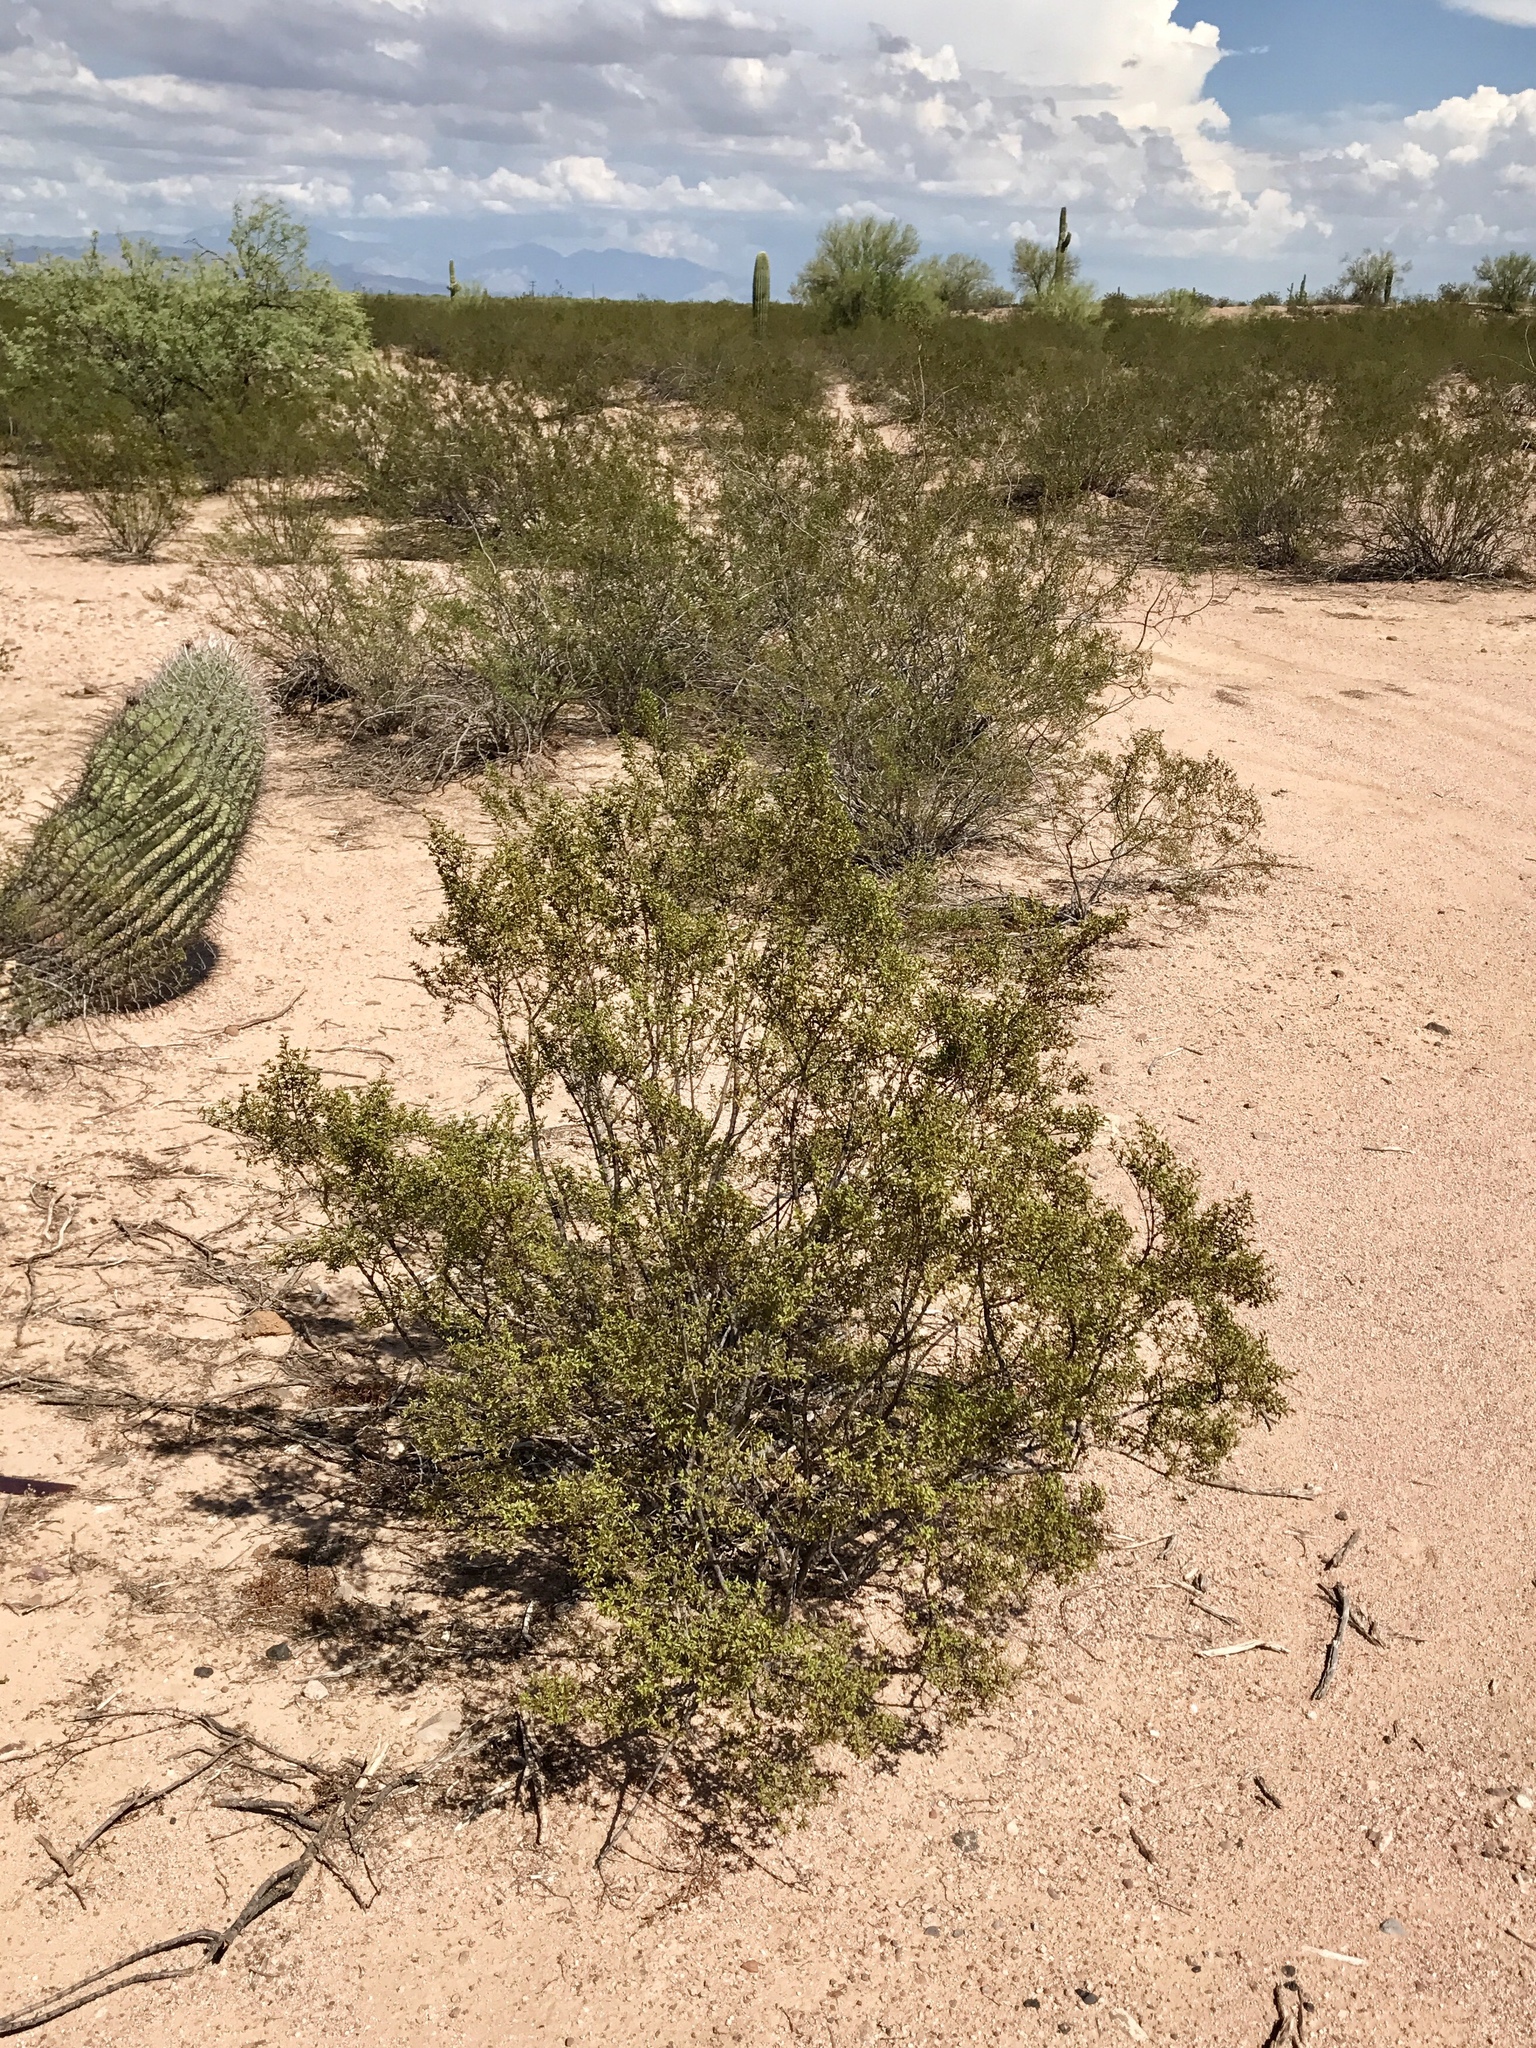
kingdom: Plantae
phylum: Tracheophyta
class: Magnoliopsida
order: Zygophyllales
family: Zygophyllaceae
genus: Larrea
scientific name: Larrea tridentata
